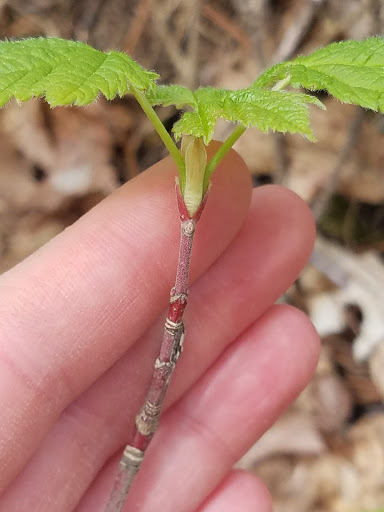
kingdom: Plantae
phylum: Tracheophyta
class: Magnoliopsida
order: Sapindales
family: Sapindaceae
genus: Acer
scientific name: Acer spicatum
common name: Mountain maple
